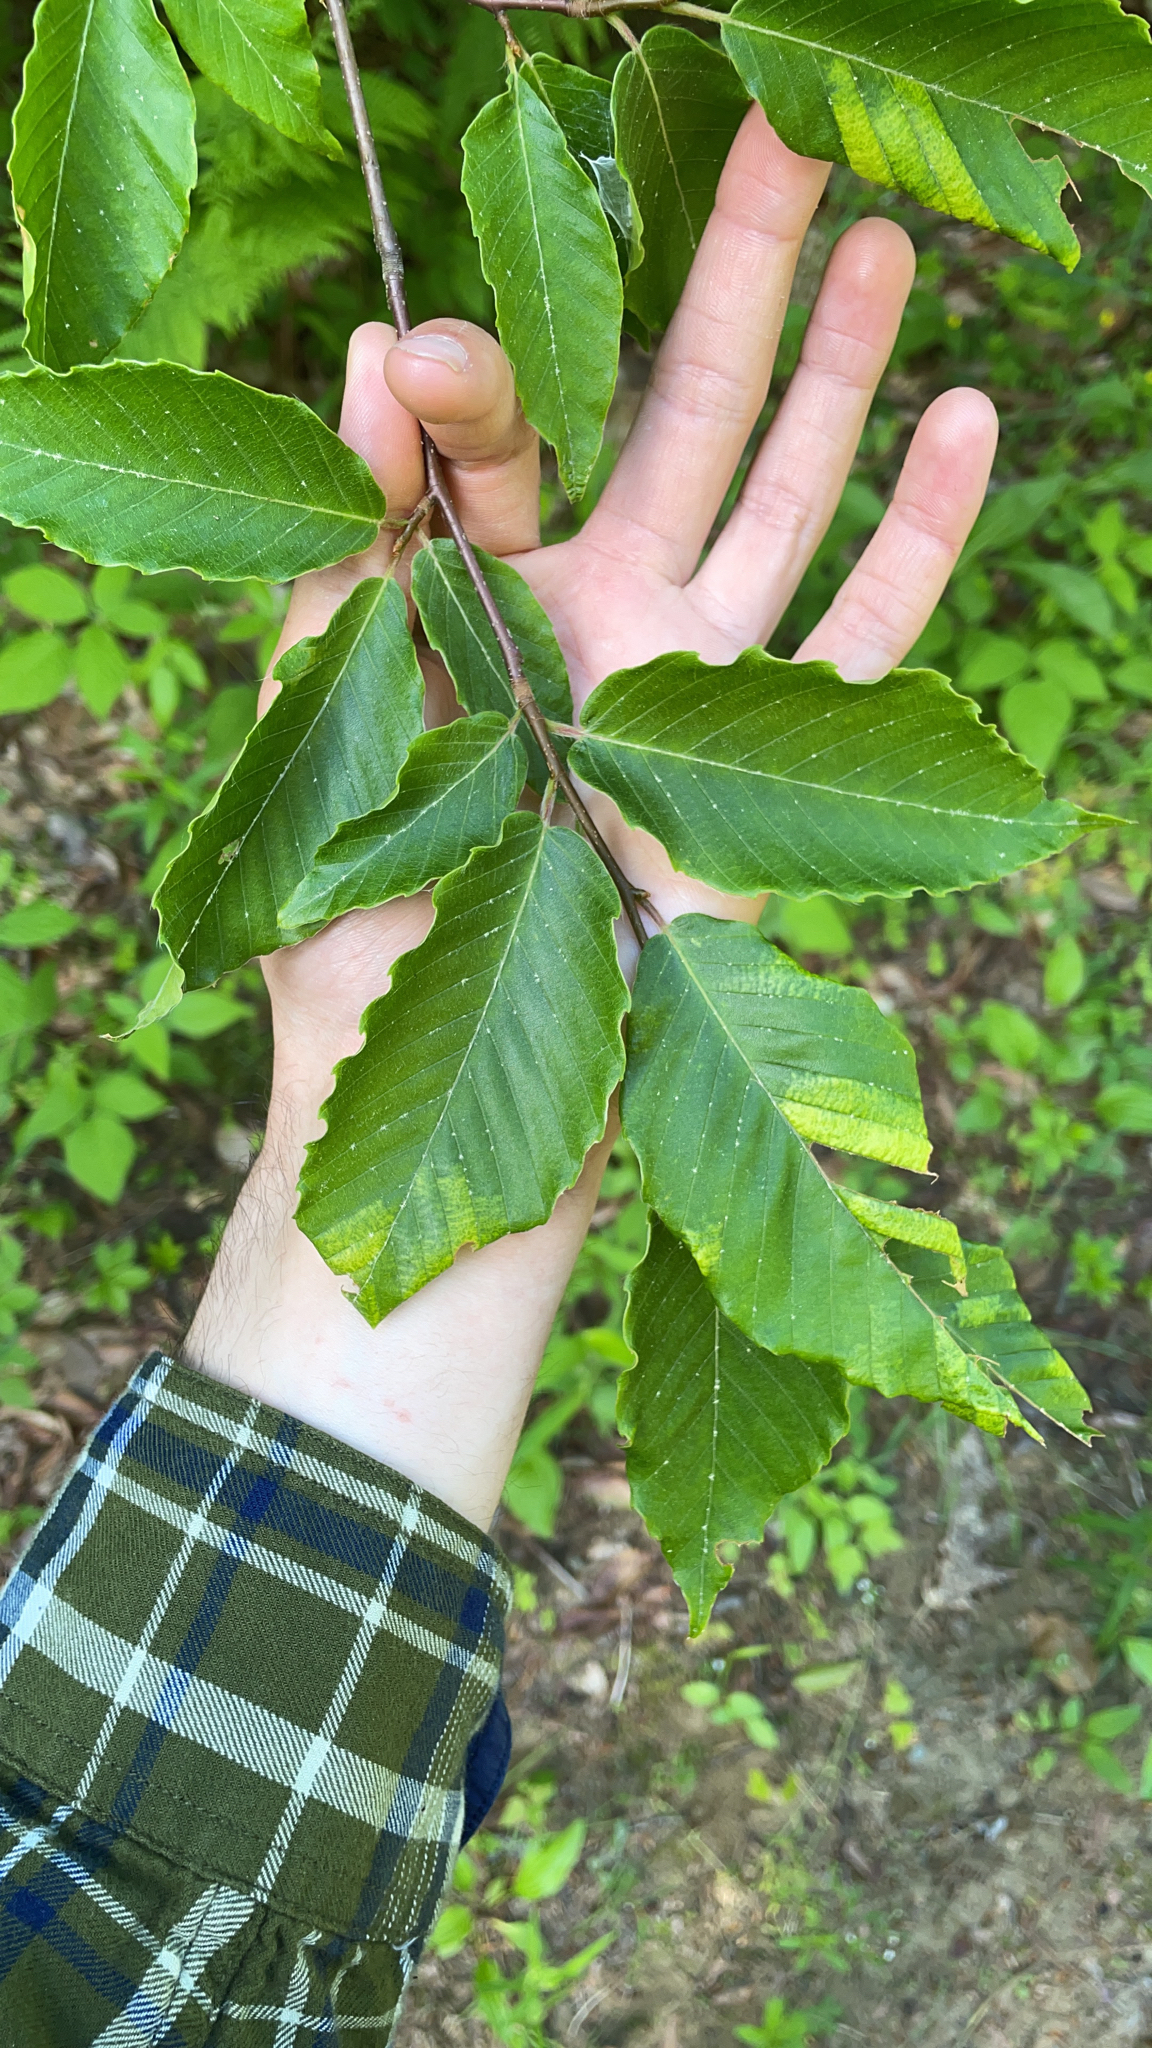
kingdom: Plantae
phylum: Tracheophyta
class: Magnoliopsida
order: Fagales
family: Fagaceae
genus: Fagus
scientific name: Fagus grandifolia
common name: American beech
